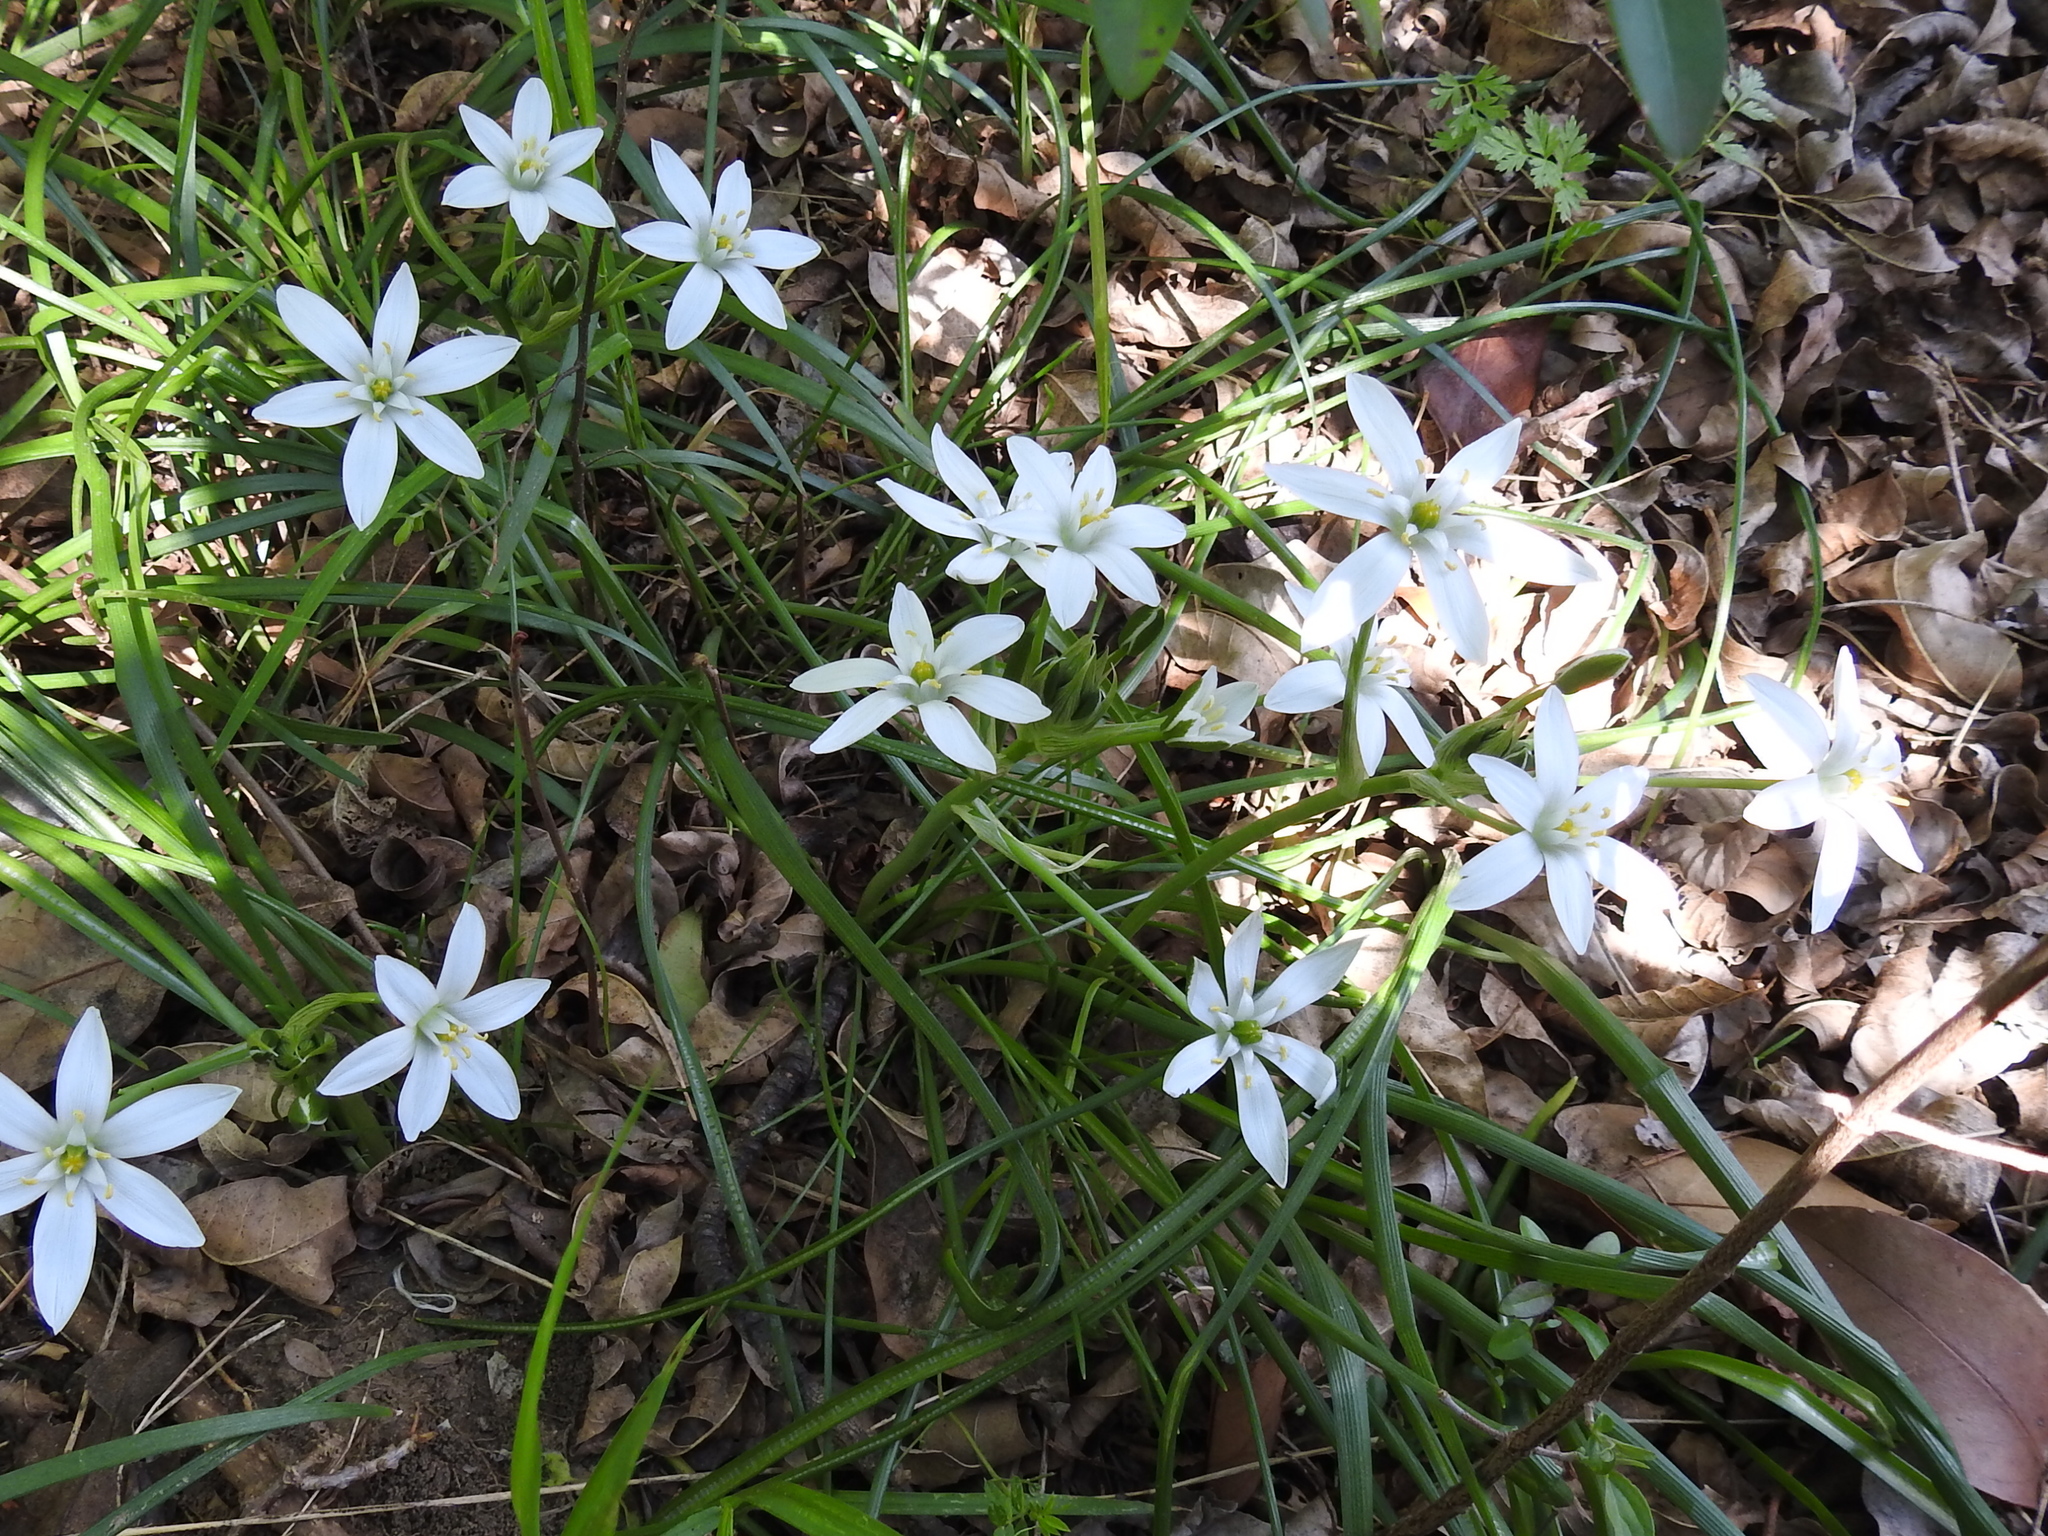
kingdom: Plantae
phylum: Tracheophyta
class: Liliopsida
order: Asparagales
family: Asparagaceae
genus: Ornithogalum
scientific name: Ornithogalum umbellatum
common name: Garden star-of-bethlehem
